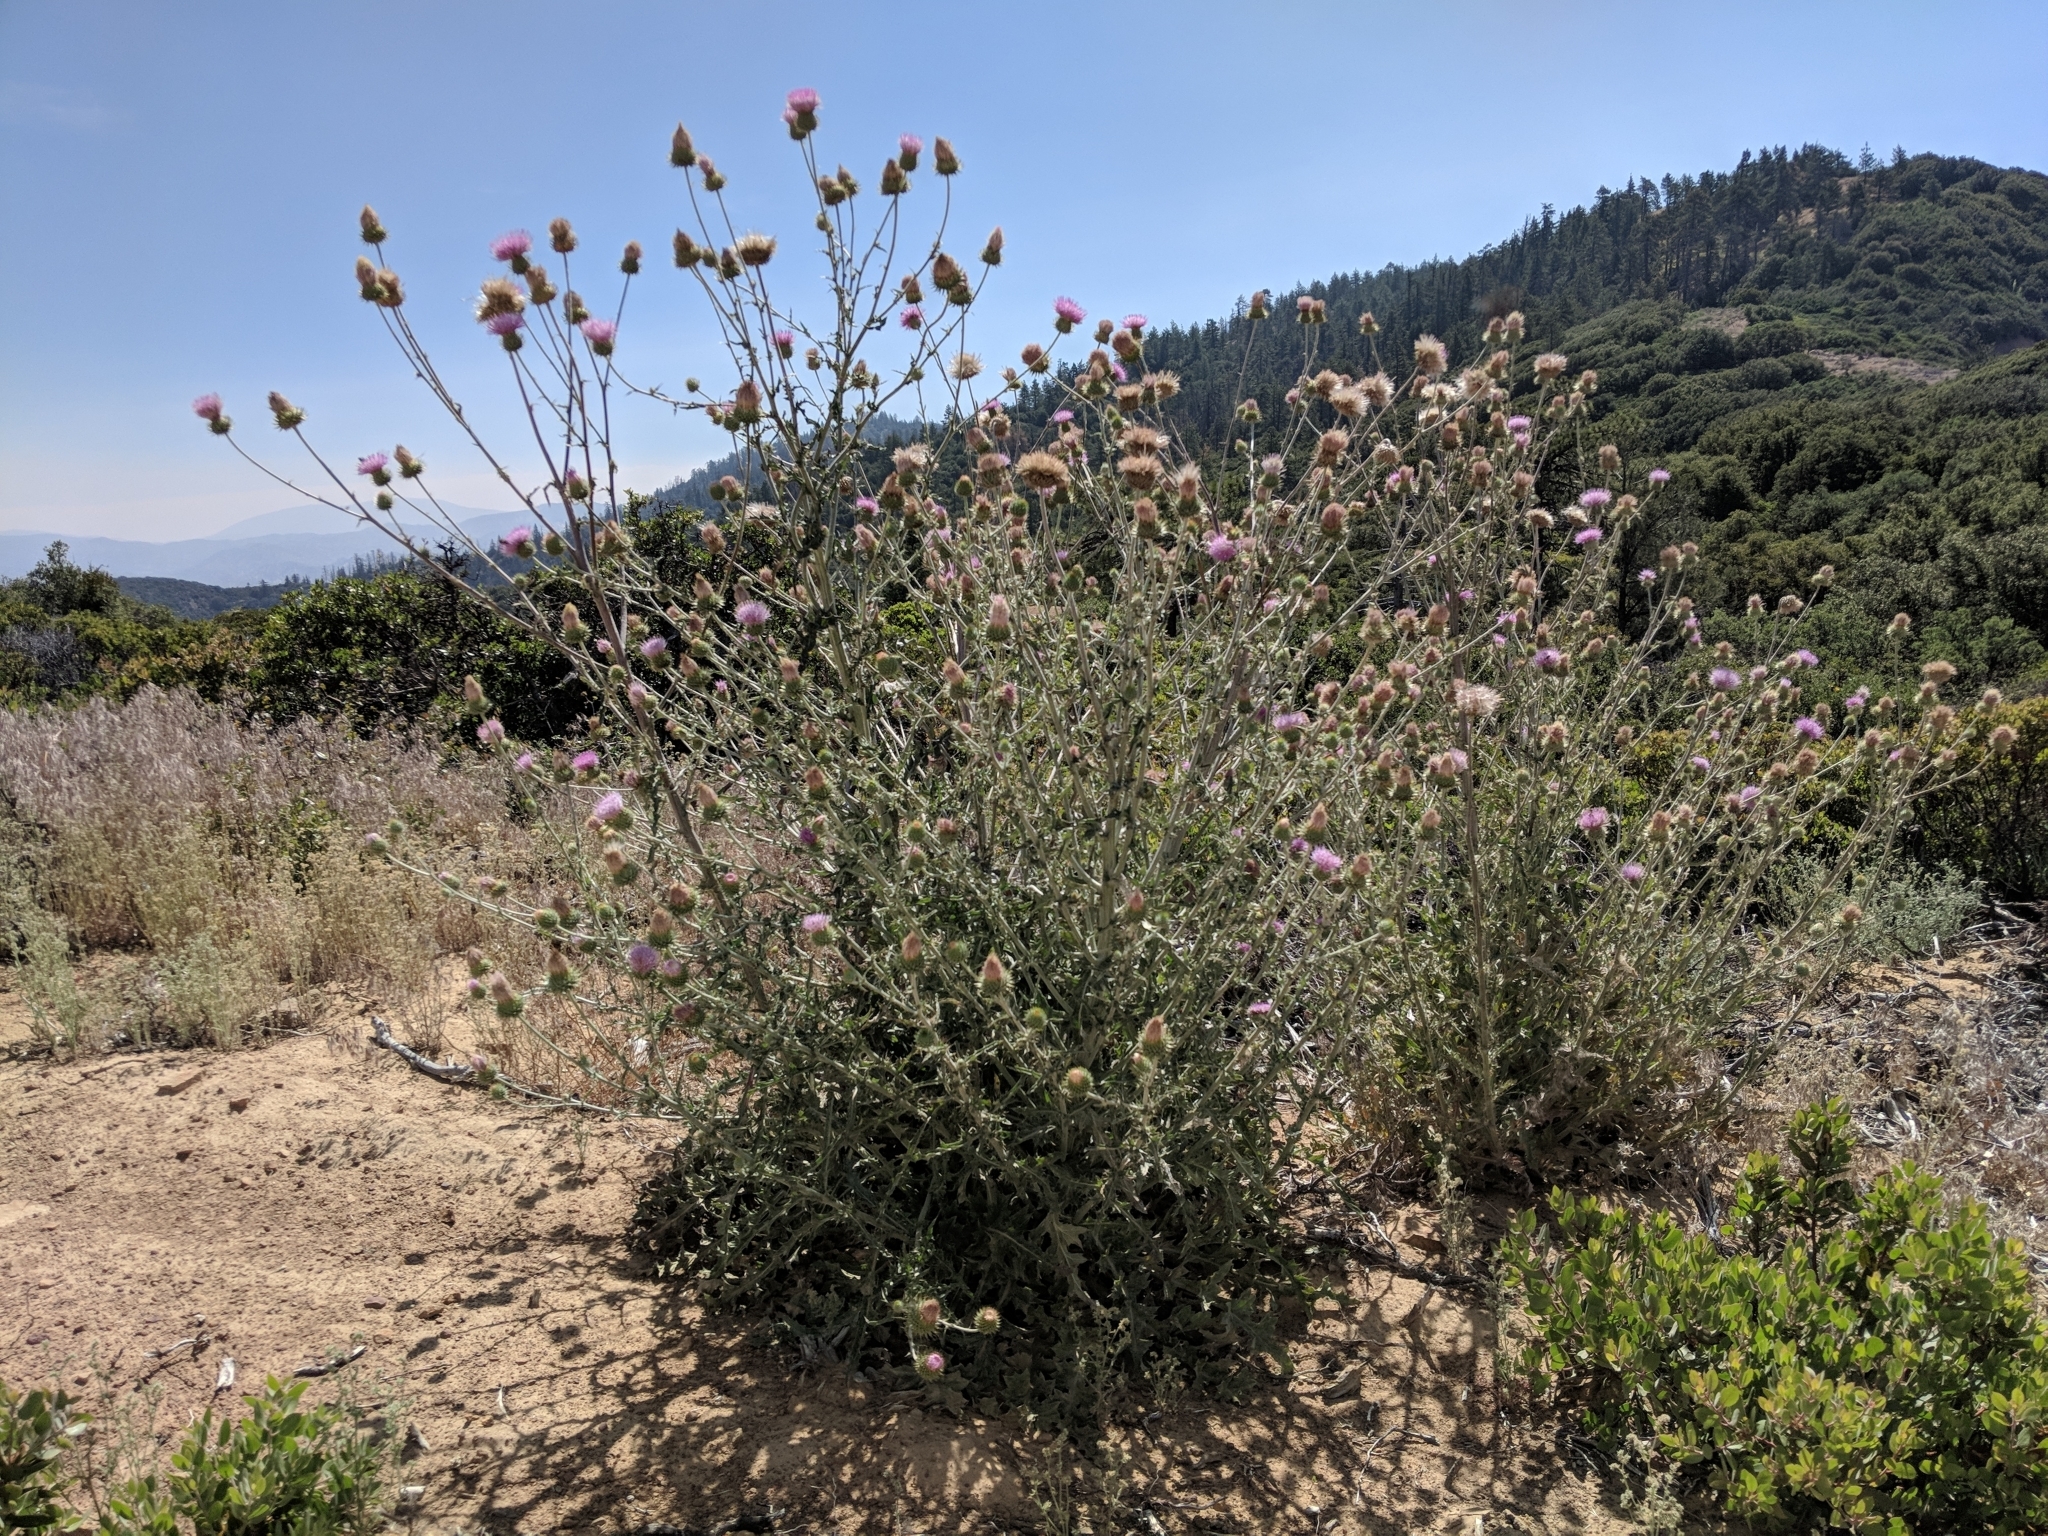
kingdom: Plantae
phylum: Tracheophyta
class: Magnoliopsida
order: Asterales
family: Asteraceae
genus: Cirsium
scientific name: Cirsium occidentale
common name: Western thistle
